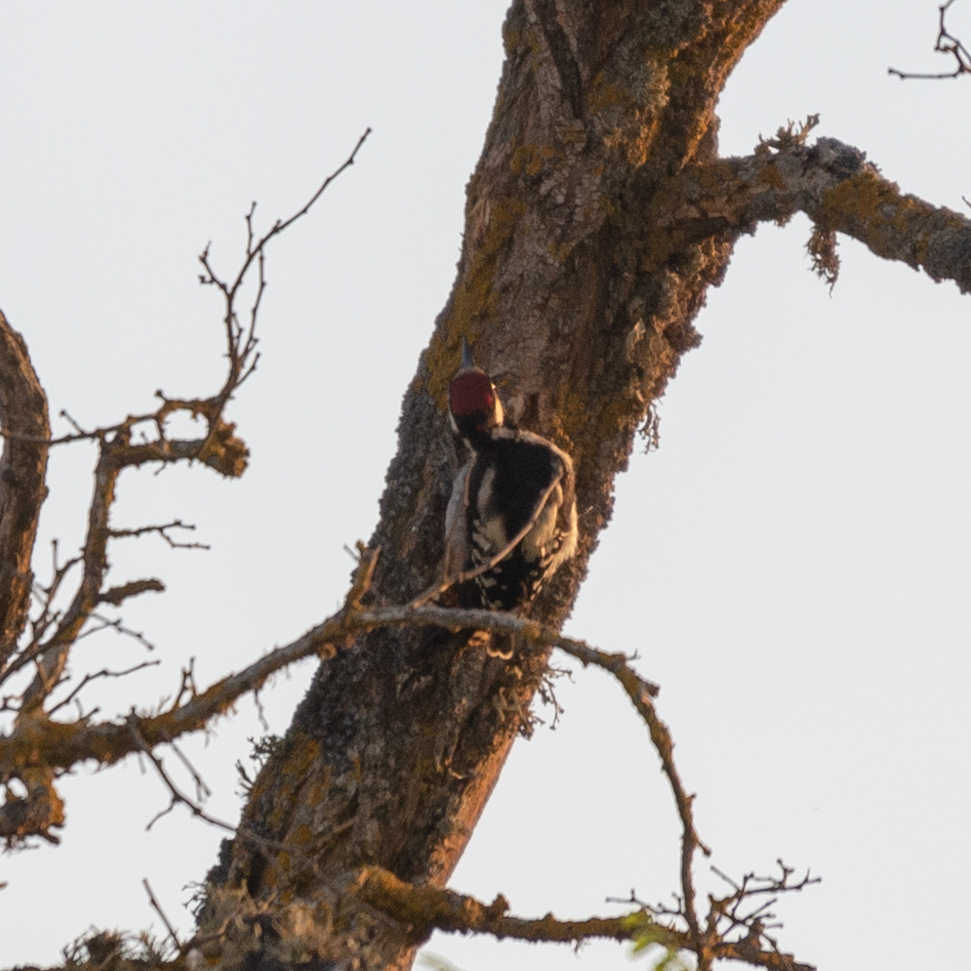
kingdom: Animalia
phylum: Chordata
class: Aves
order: Piciformes
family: Picidae
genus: Dendrocopos
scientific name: Dendrocopos major
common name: Great spotted woodpecker
